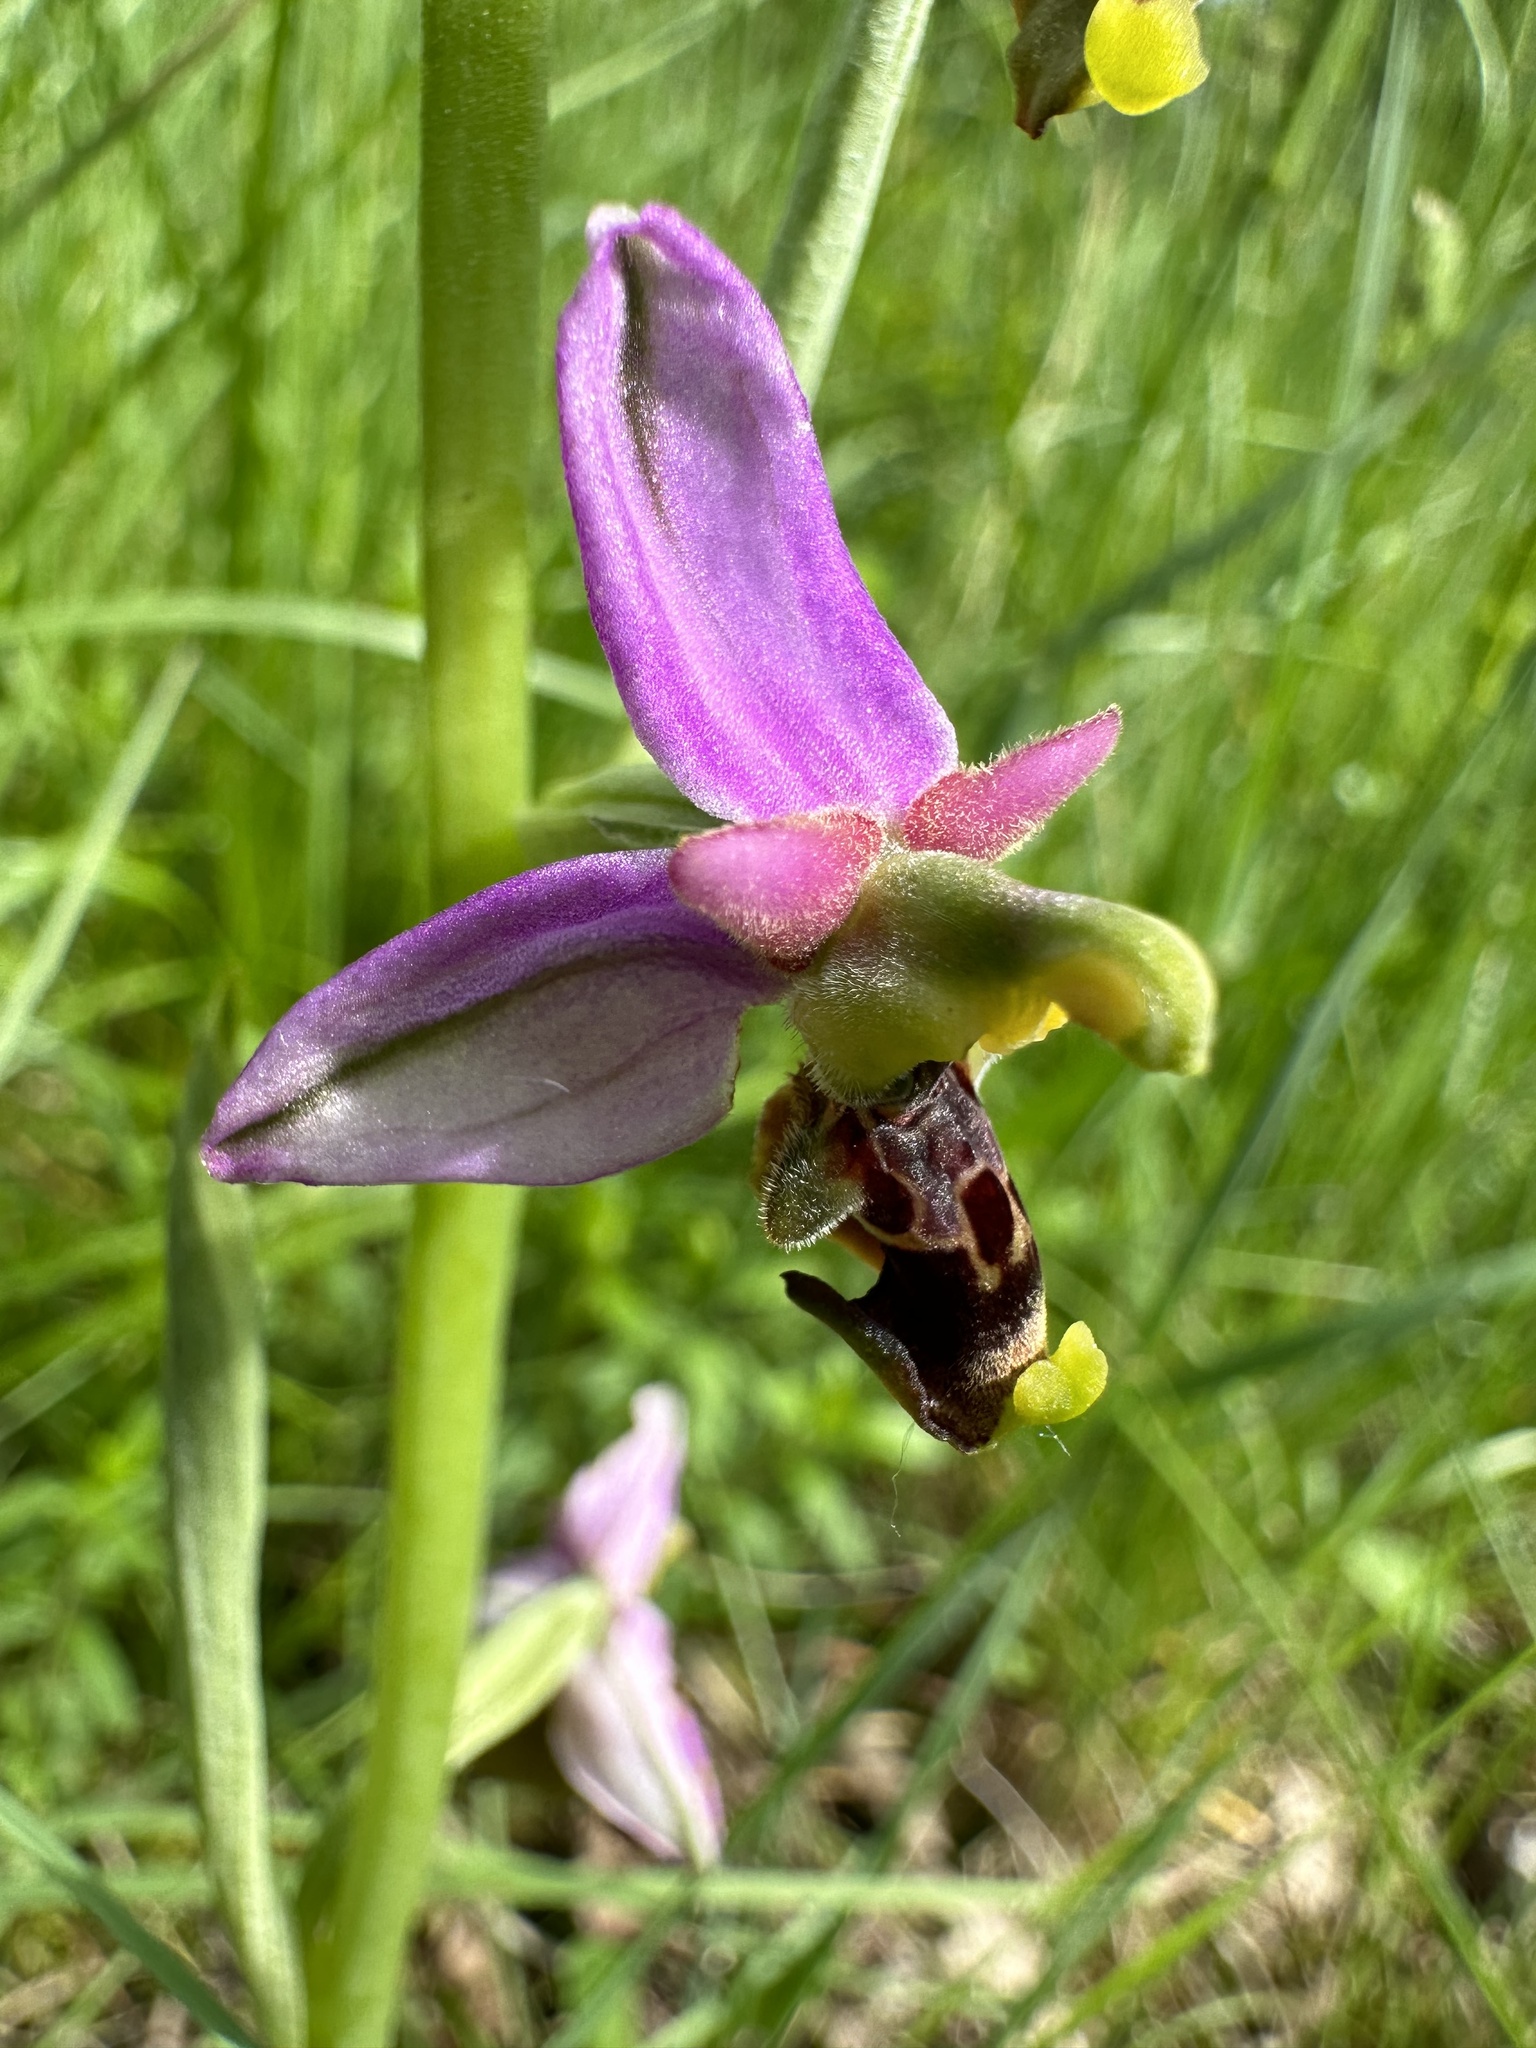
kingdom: Plantae
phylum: Tracheophyta
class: Liliopsida
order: Asparagales
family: Orchidaceae
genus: Ophrys
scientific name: Ophrys holosericea
